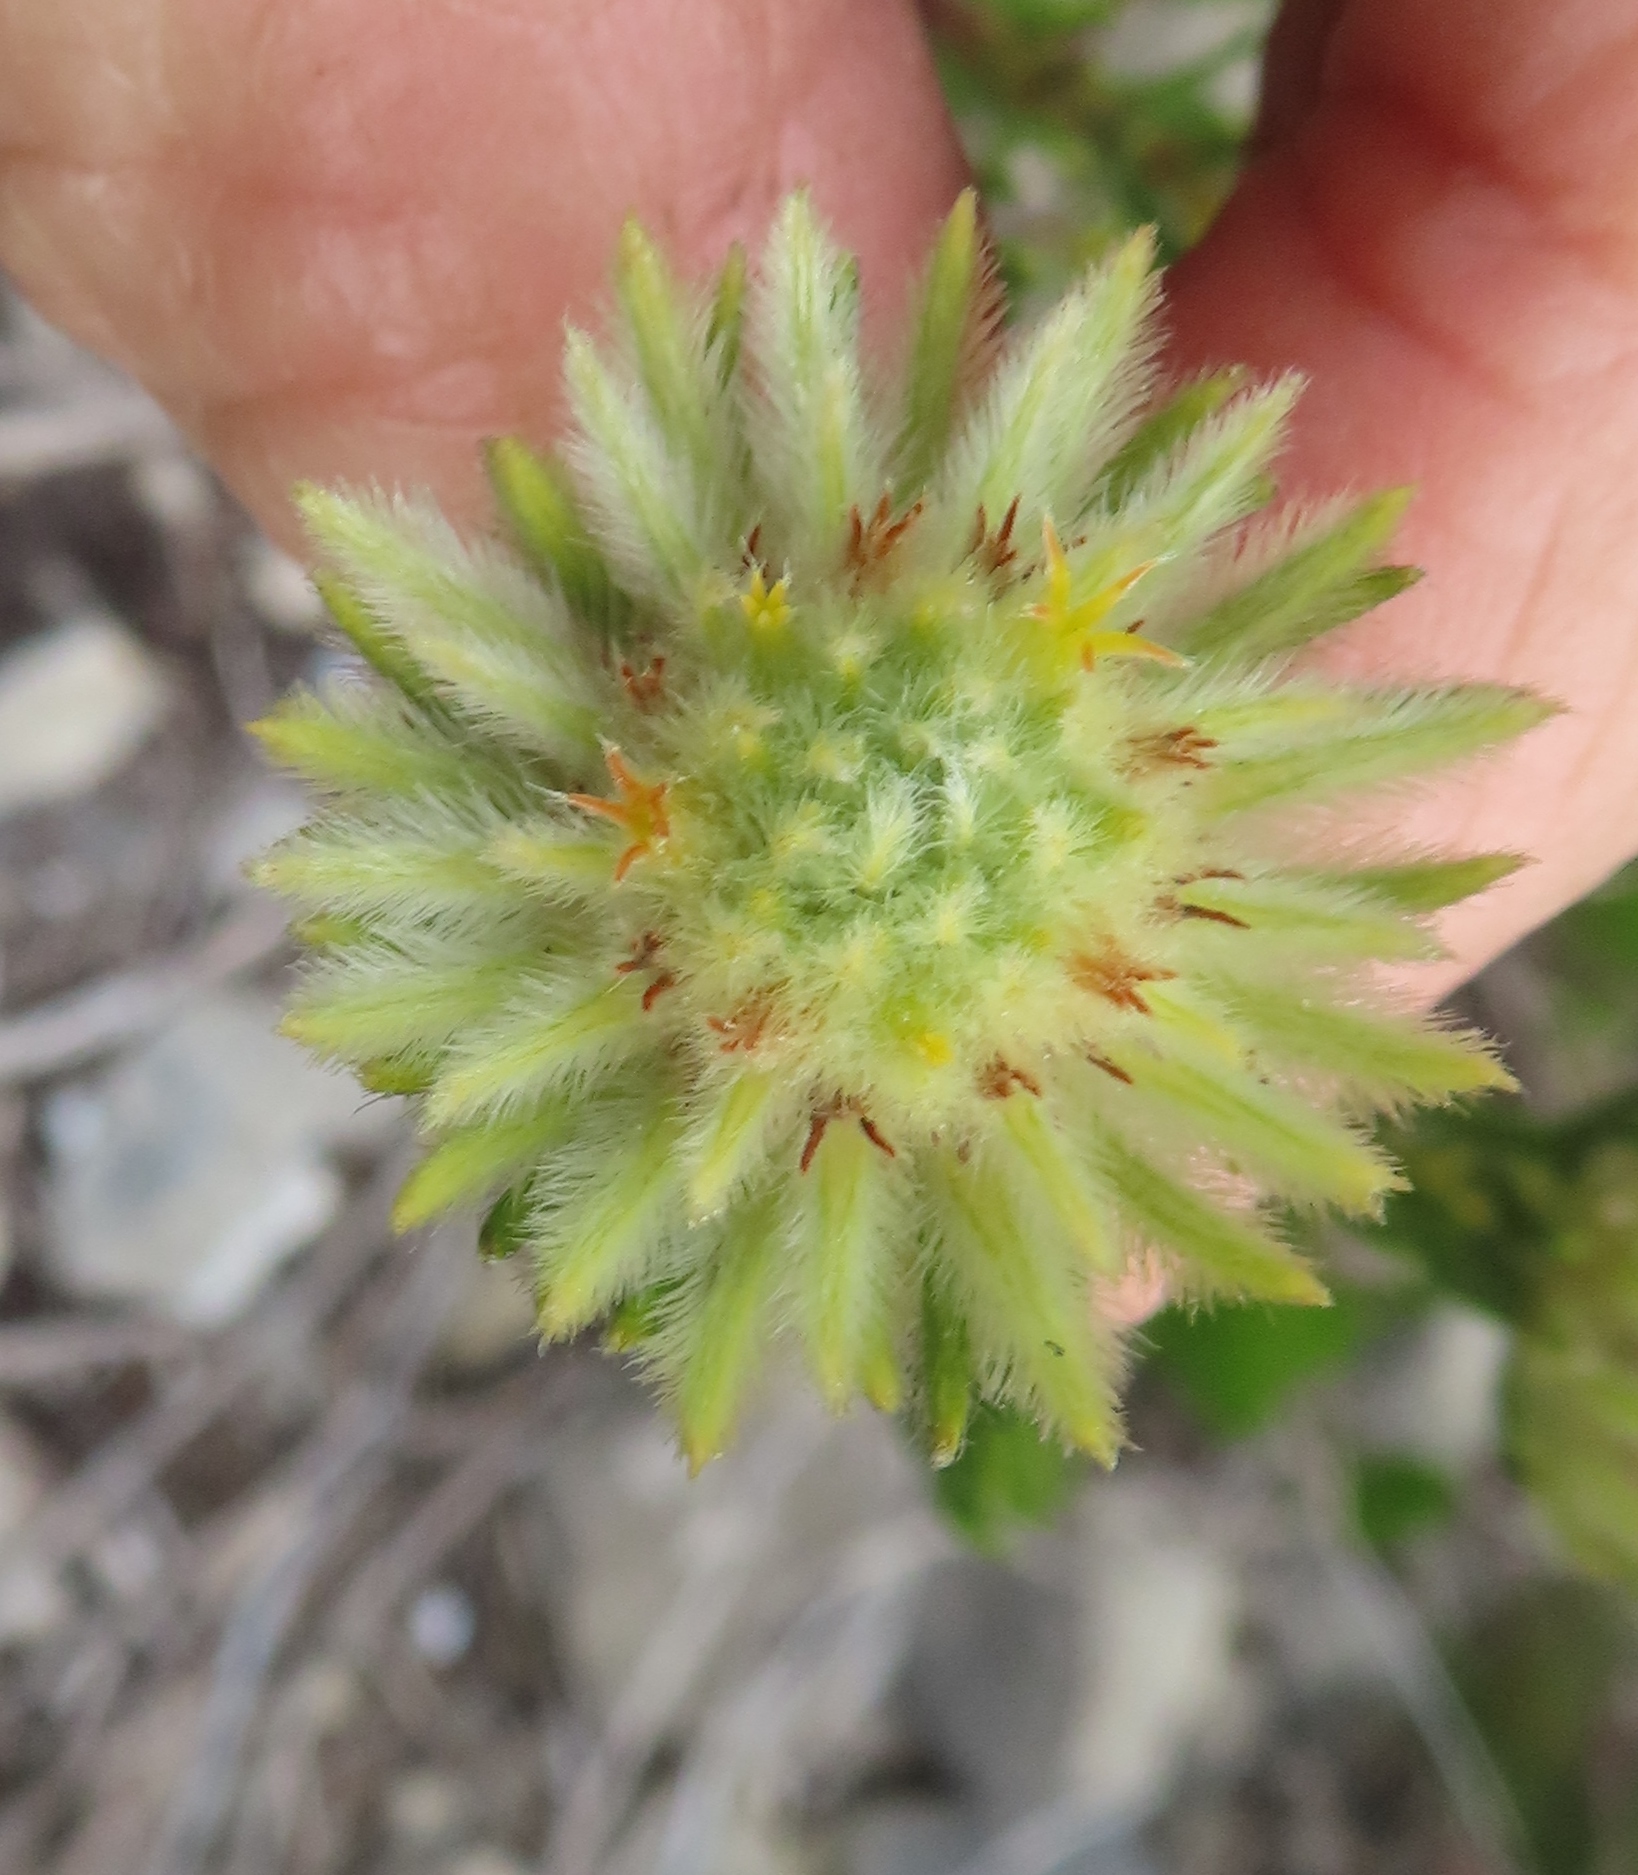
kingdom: Plantae
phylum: Tracheophyta
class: Magnoliopsida
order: Rosales
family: Rhamnaceae
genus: Phylica
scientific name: Phylica pubescens
